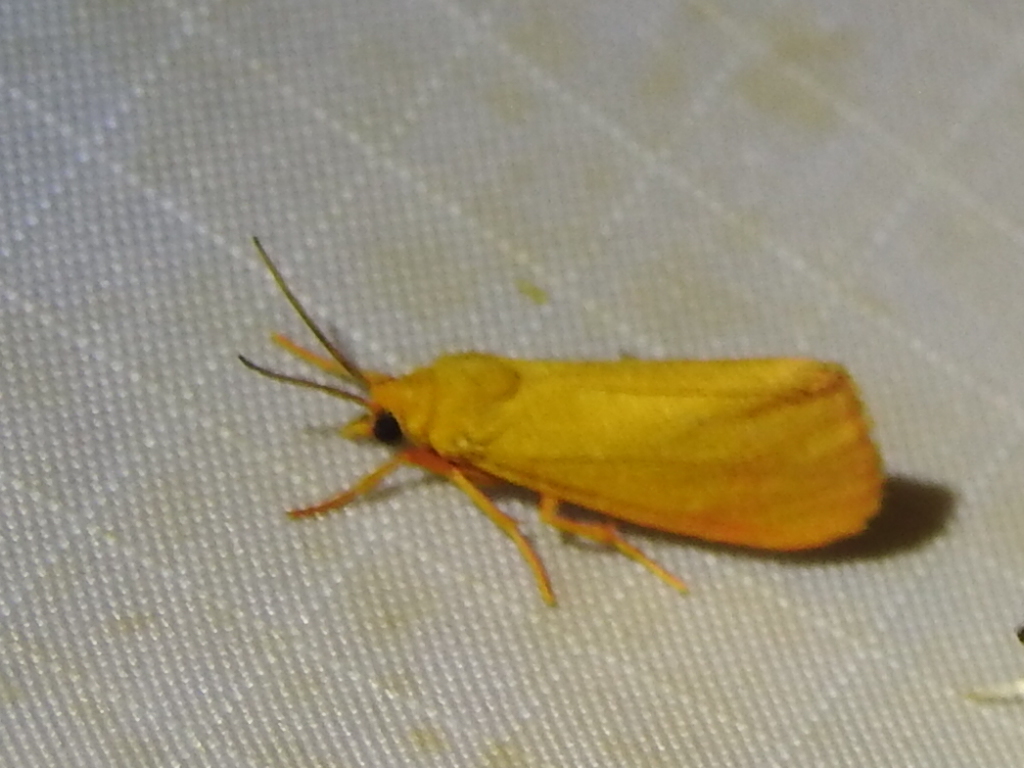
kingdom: Animalia
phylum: Arthropoda
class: Insecta
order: Lepidoptera
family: Erebidae
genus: Virbia
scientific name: Virbia aurantiaca
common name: Orange virbia moth
